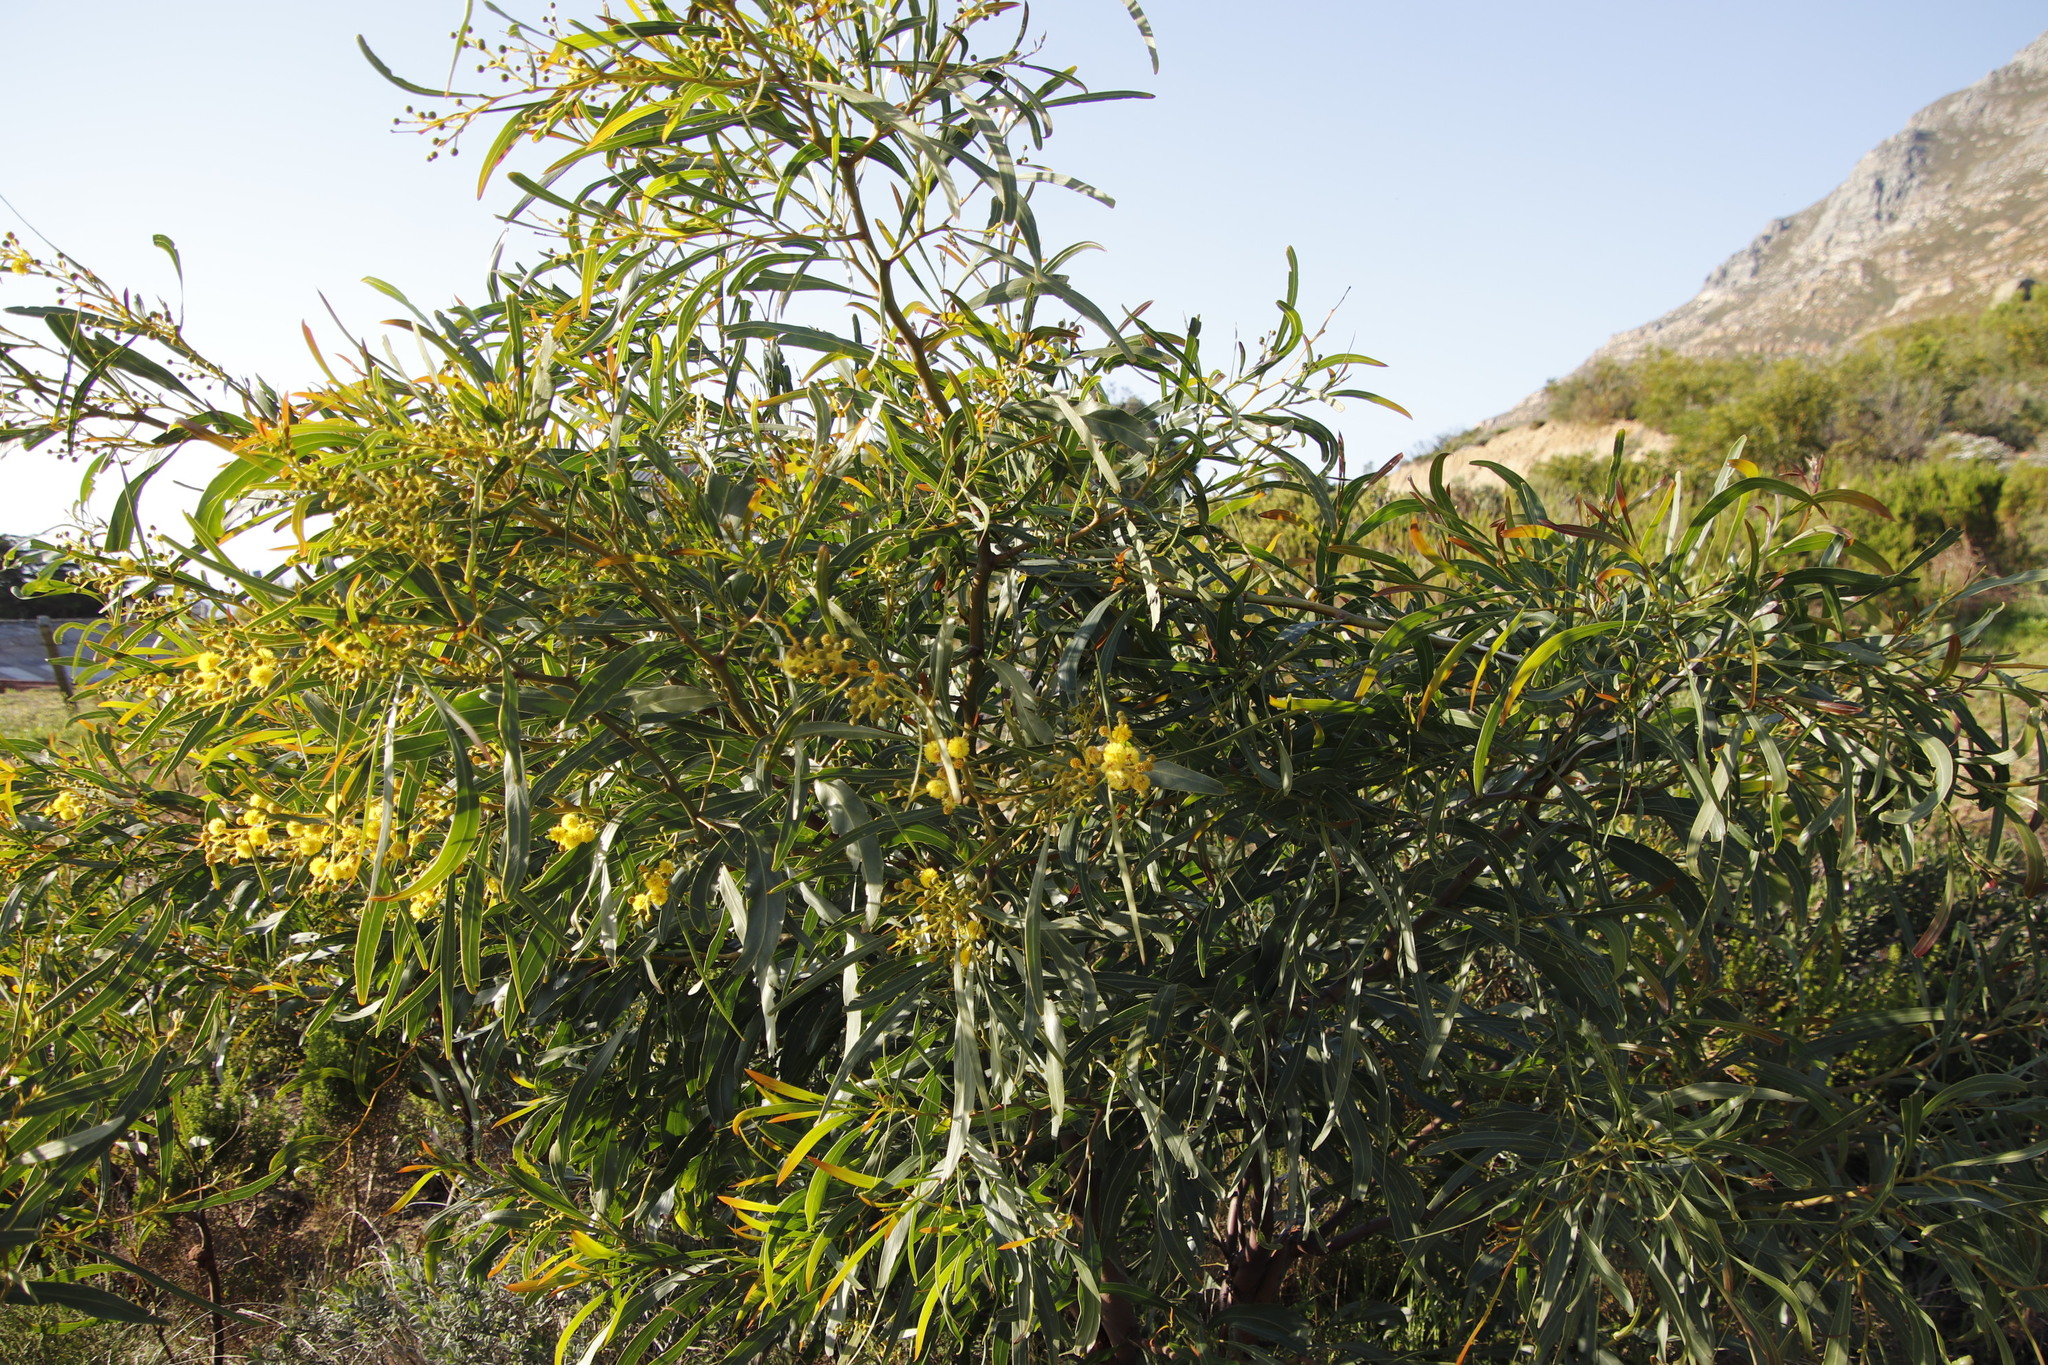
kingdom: Plantae
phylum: Tracheophyta
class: Magnoliopsida
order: Fabales
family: Fabaceae
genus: Acacia
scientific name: Acacia saligna
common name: Orange wattle
